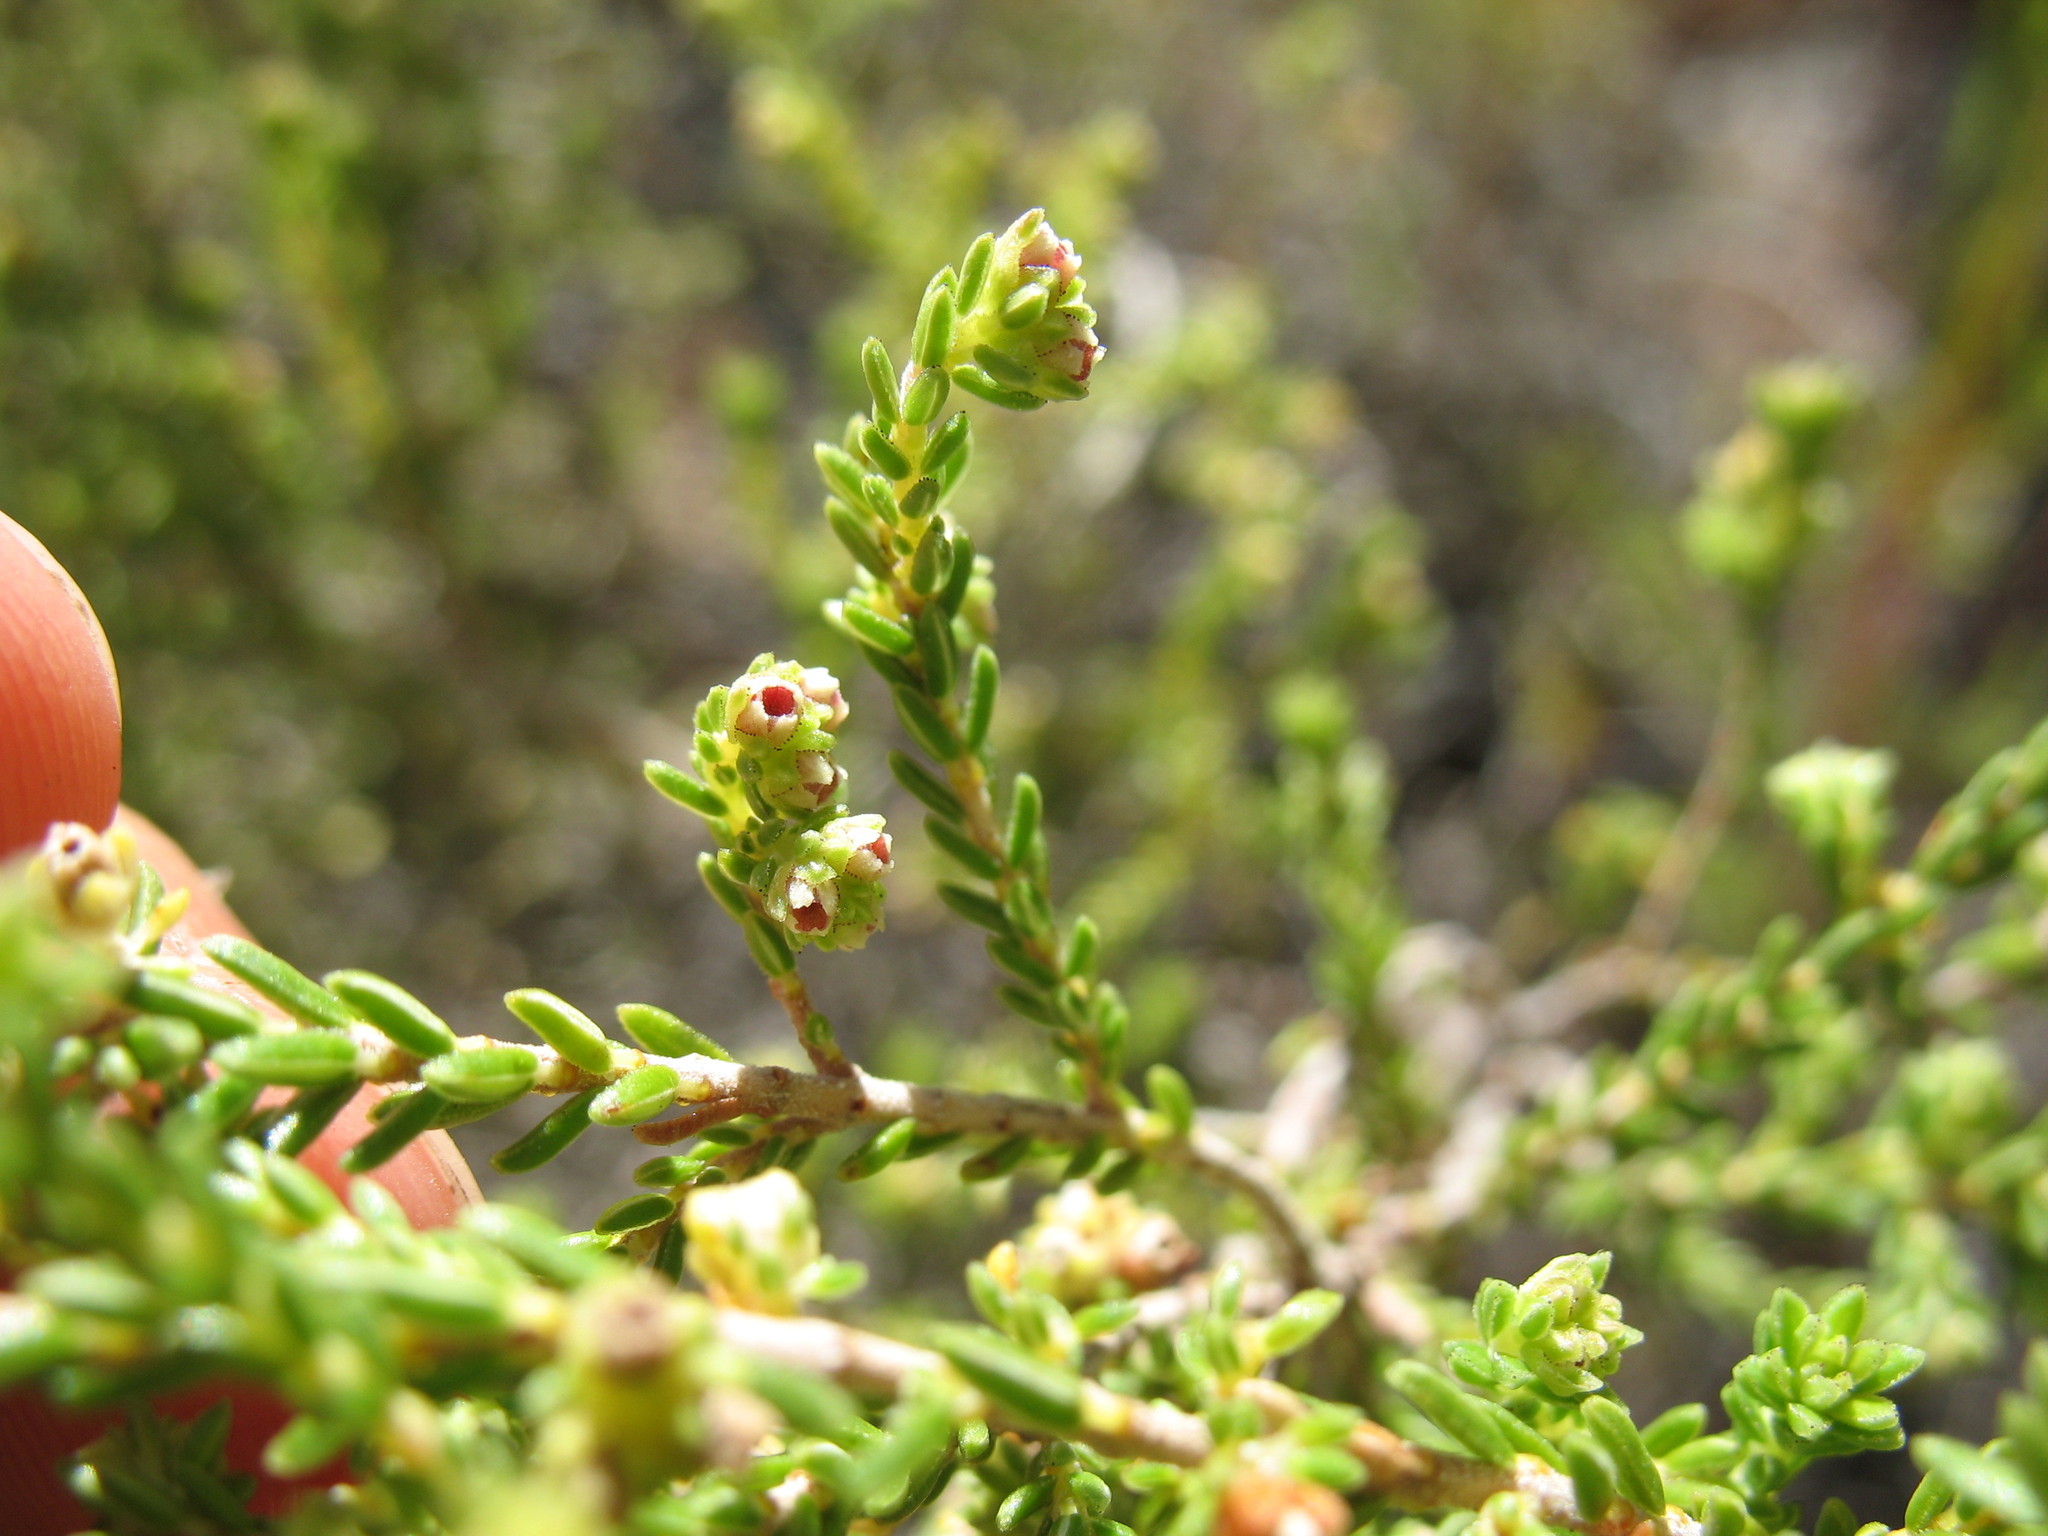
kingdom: Plantae
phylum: Tracheophyta
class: Magnoliopsida
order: Ericales
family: Ericaceae
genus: Erica
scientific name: Erica serrata
